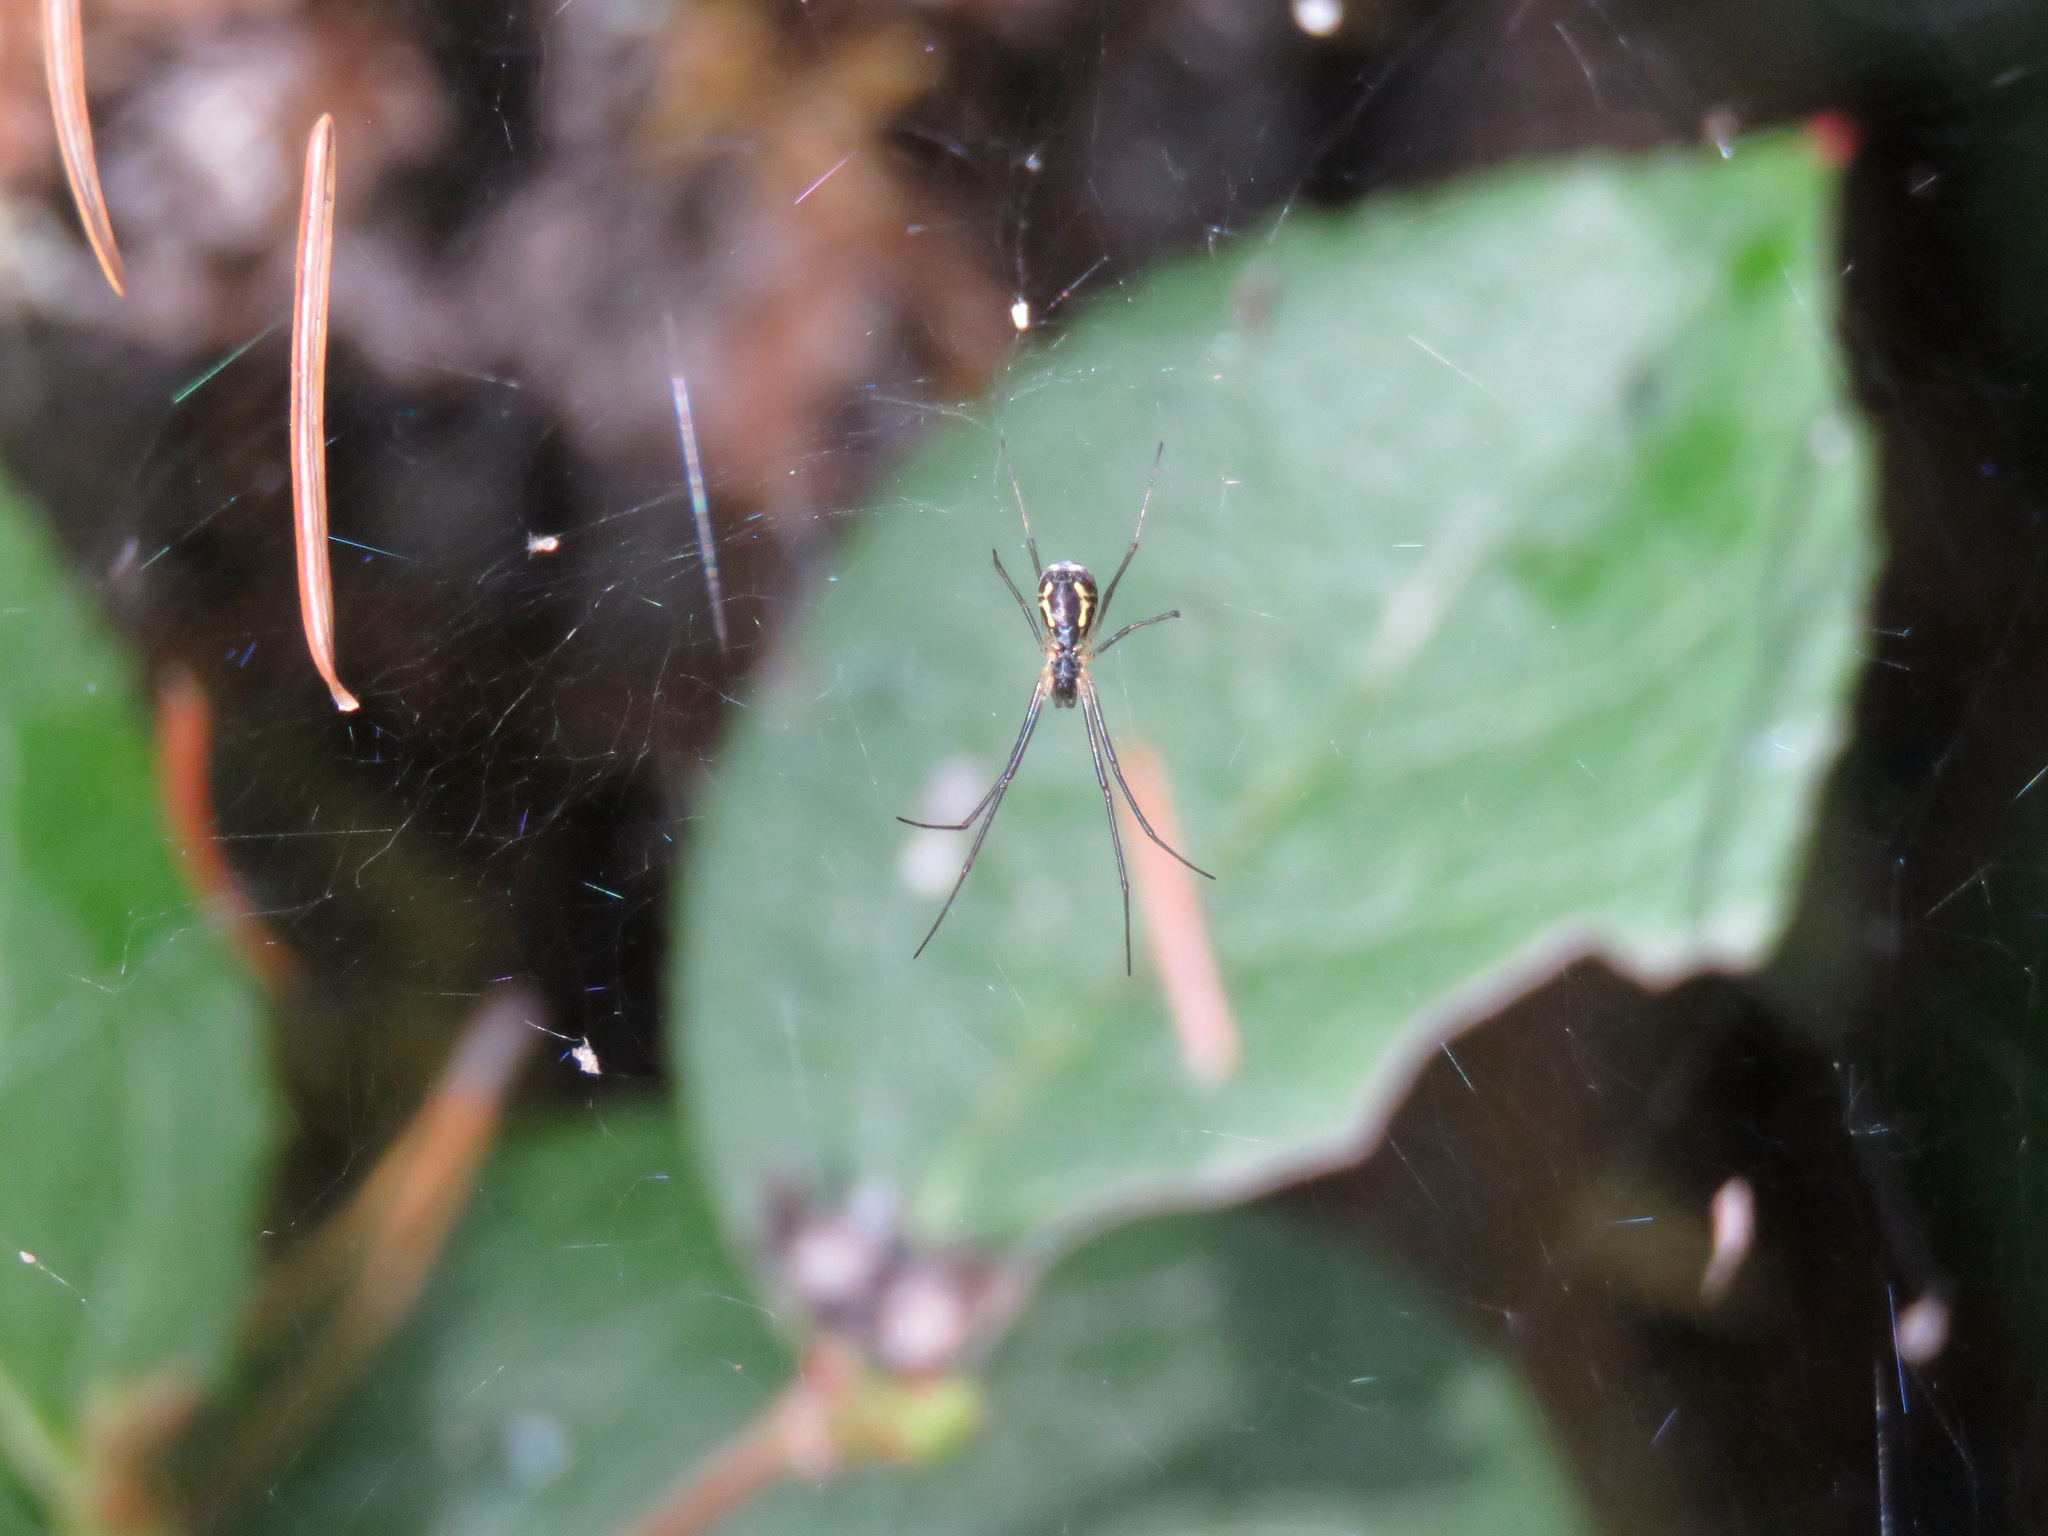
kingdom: Animalia
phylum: Arthropoda
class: Arachnida
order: Araneae
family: Linyphiidae
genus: Neriene
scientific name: Neriene radiata
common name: Filmy dome spider
